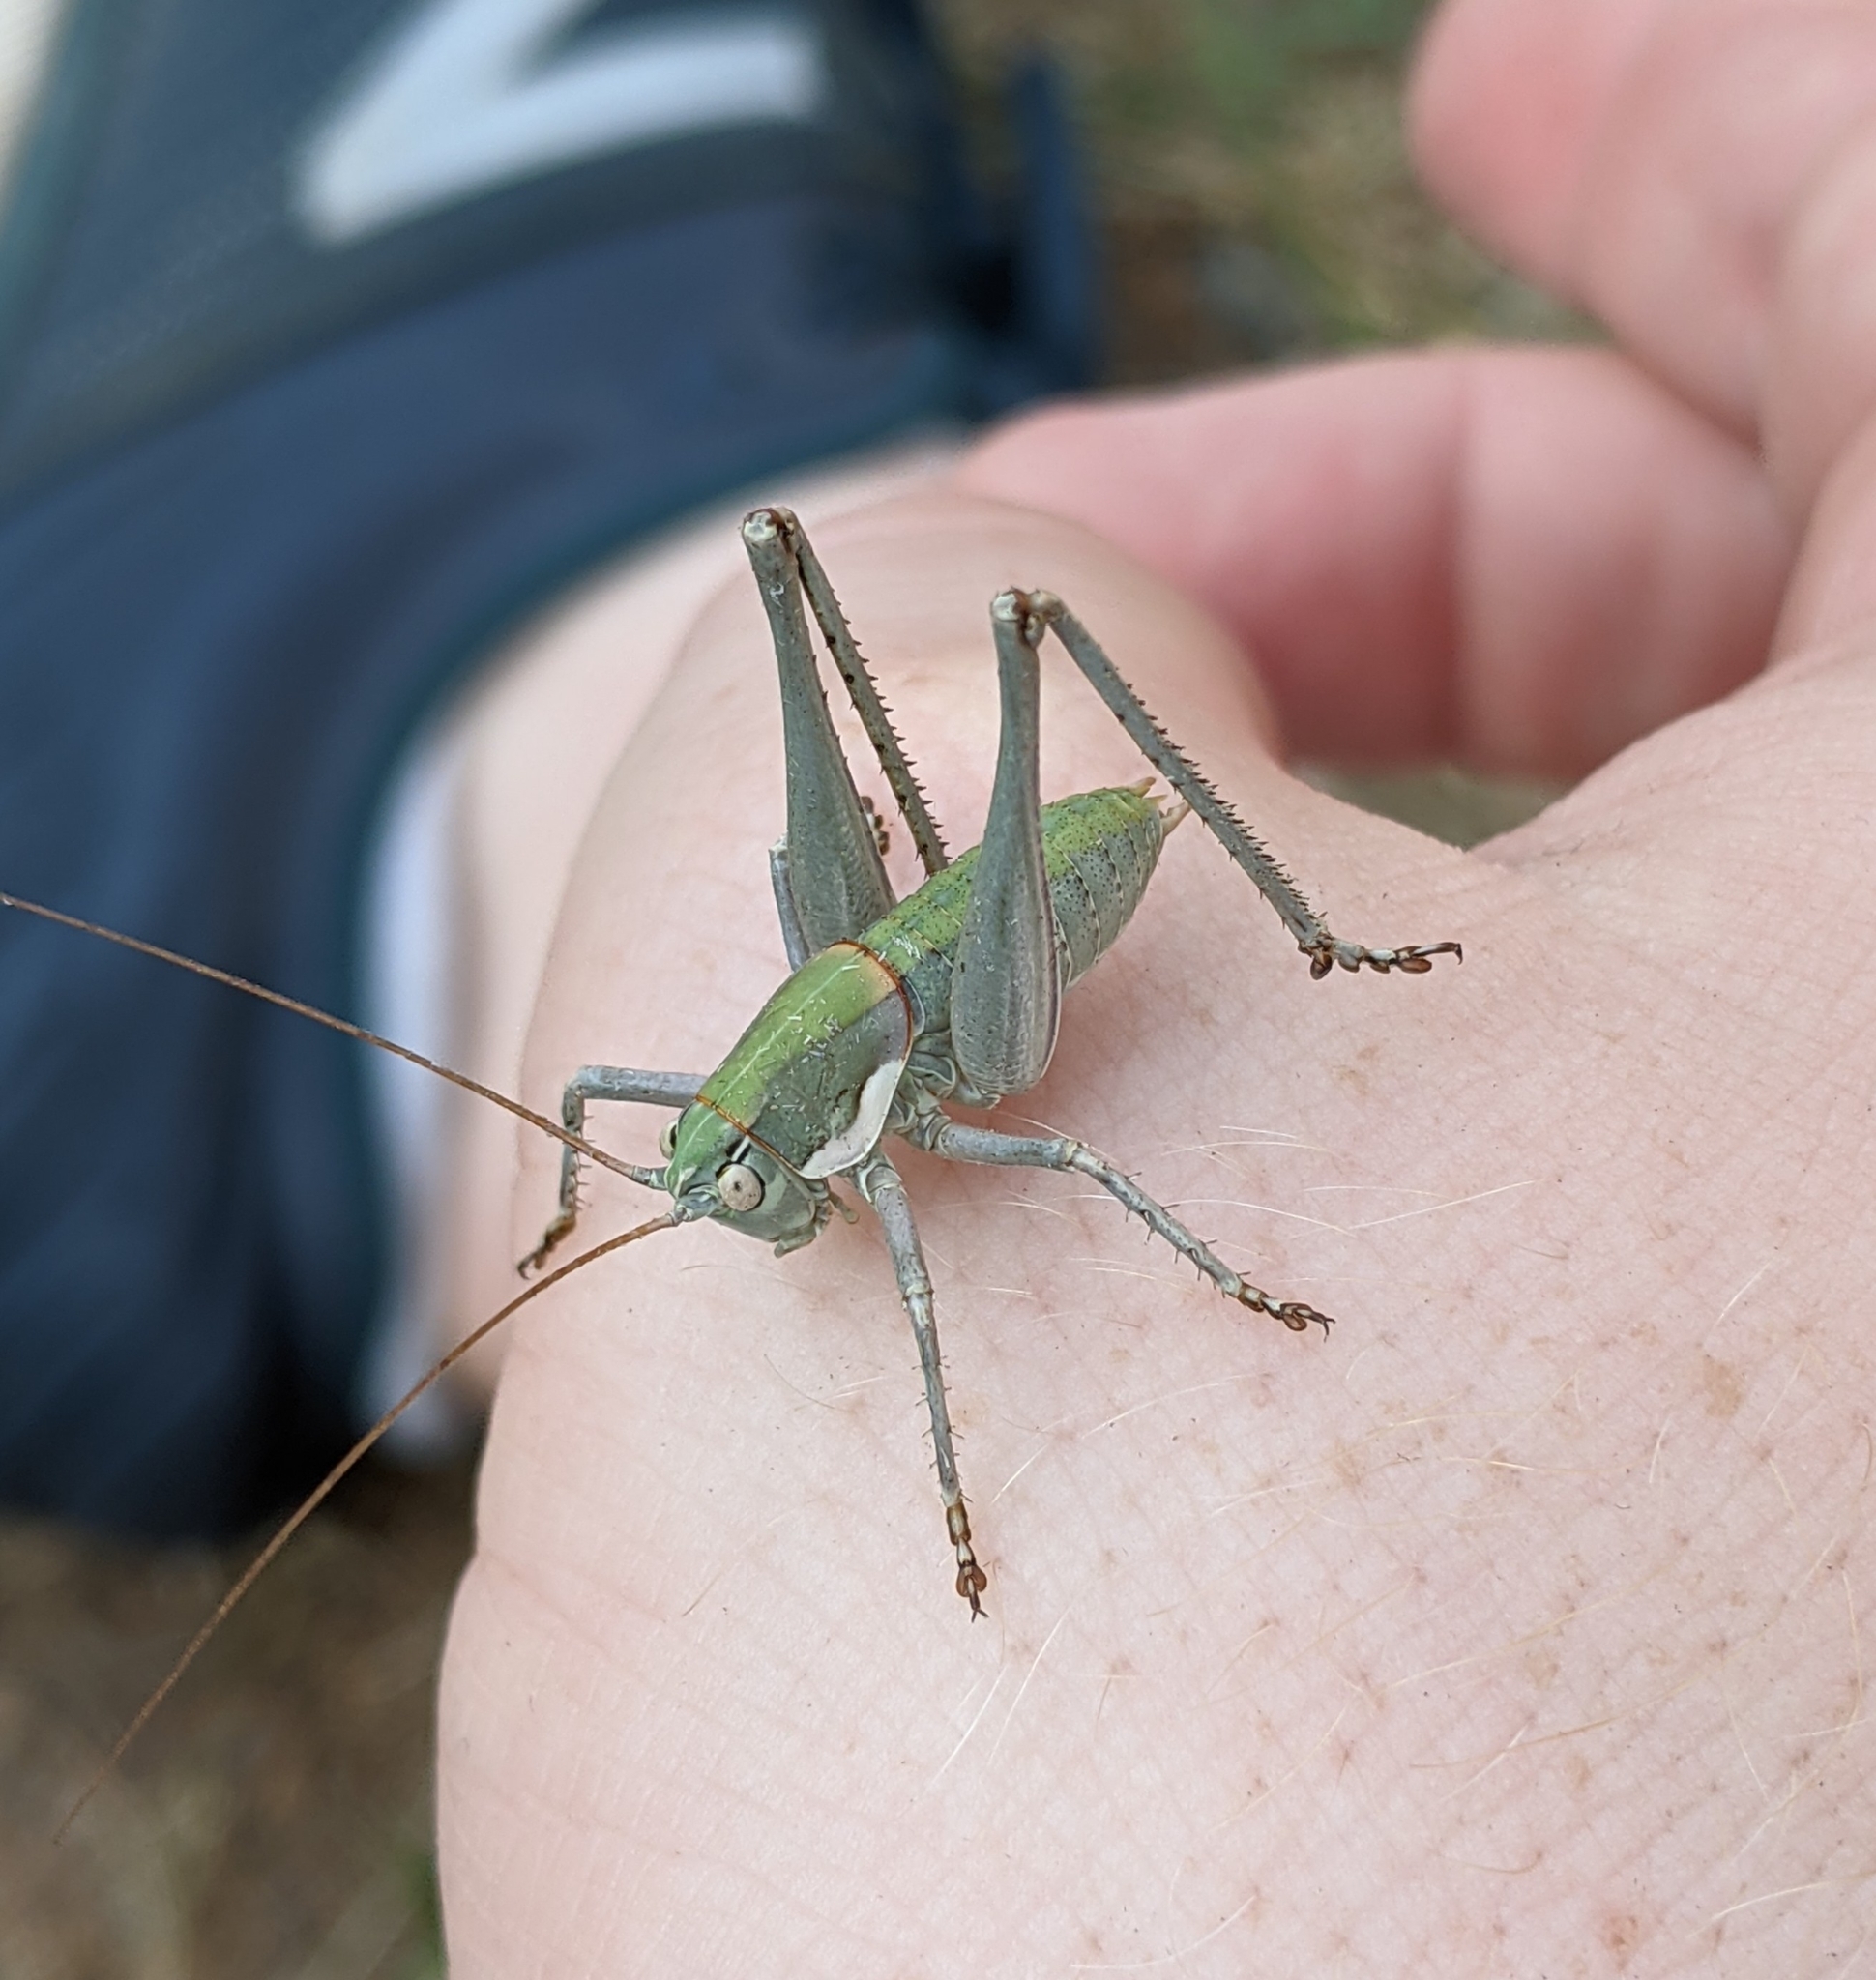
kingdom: Animalia
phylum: Arthropoda
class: Insecta
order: Orthoptera
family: Tettigoniidae
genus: Eremopedes
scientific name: Eremopedes covilleae
